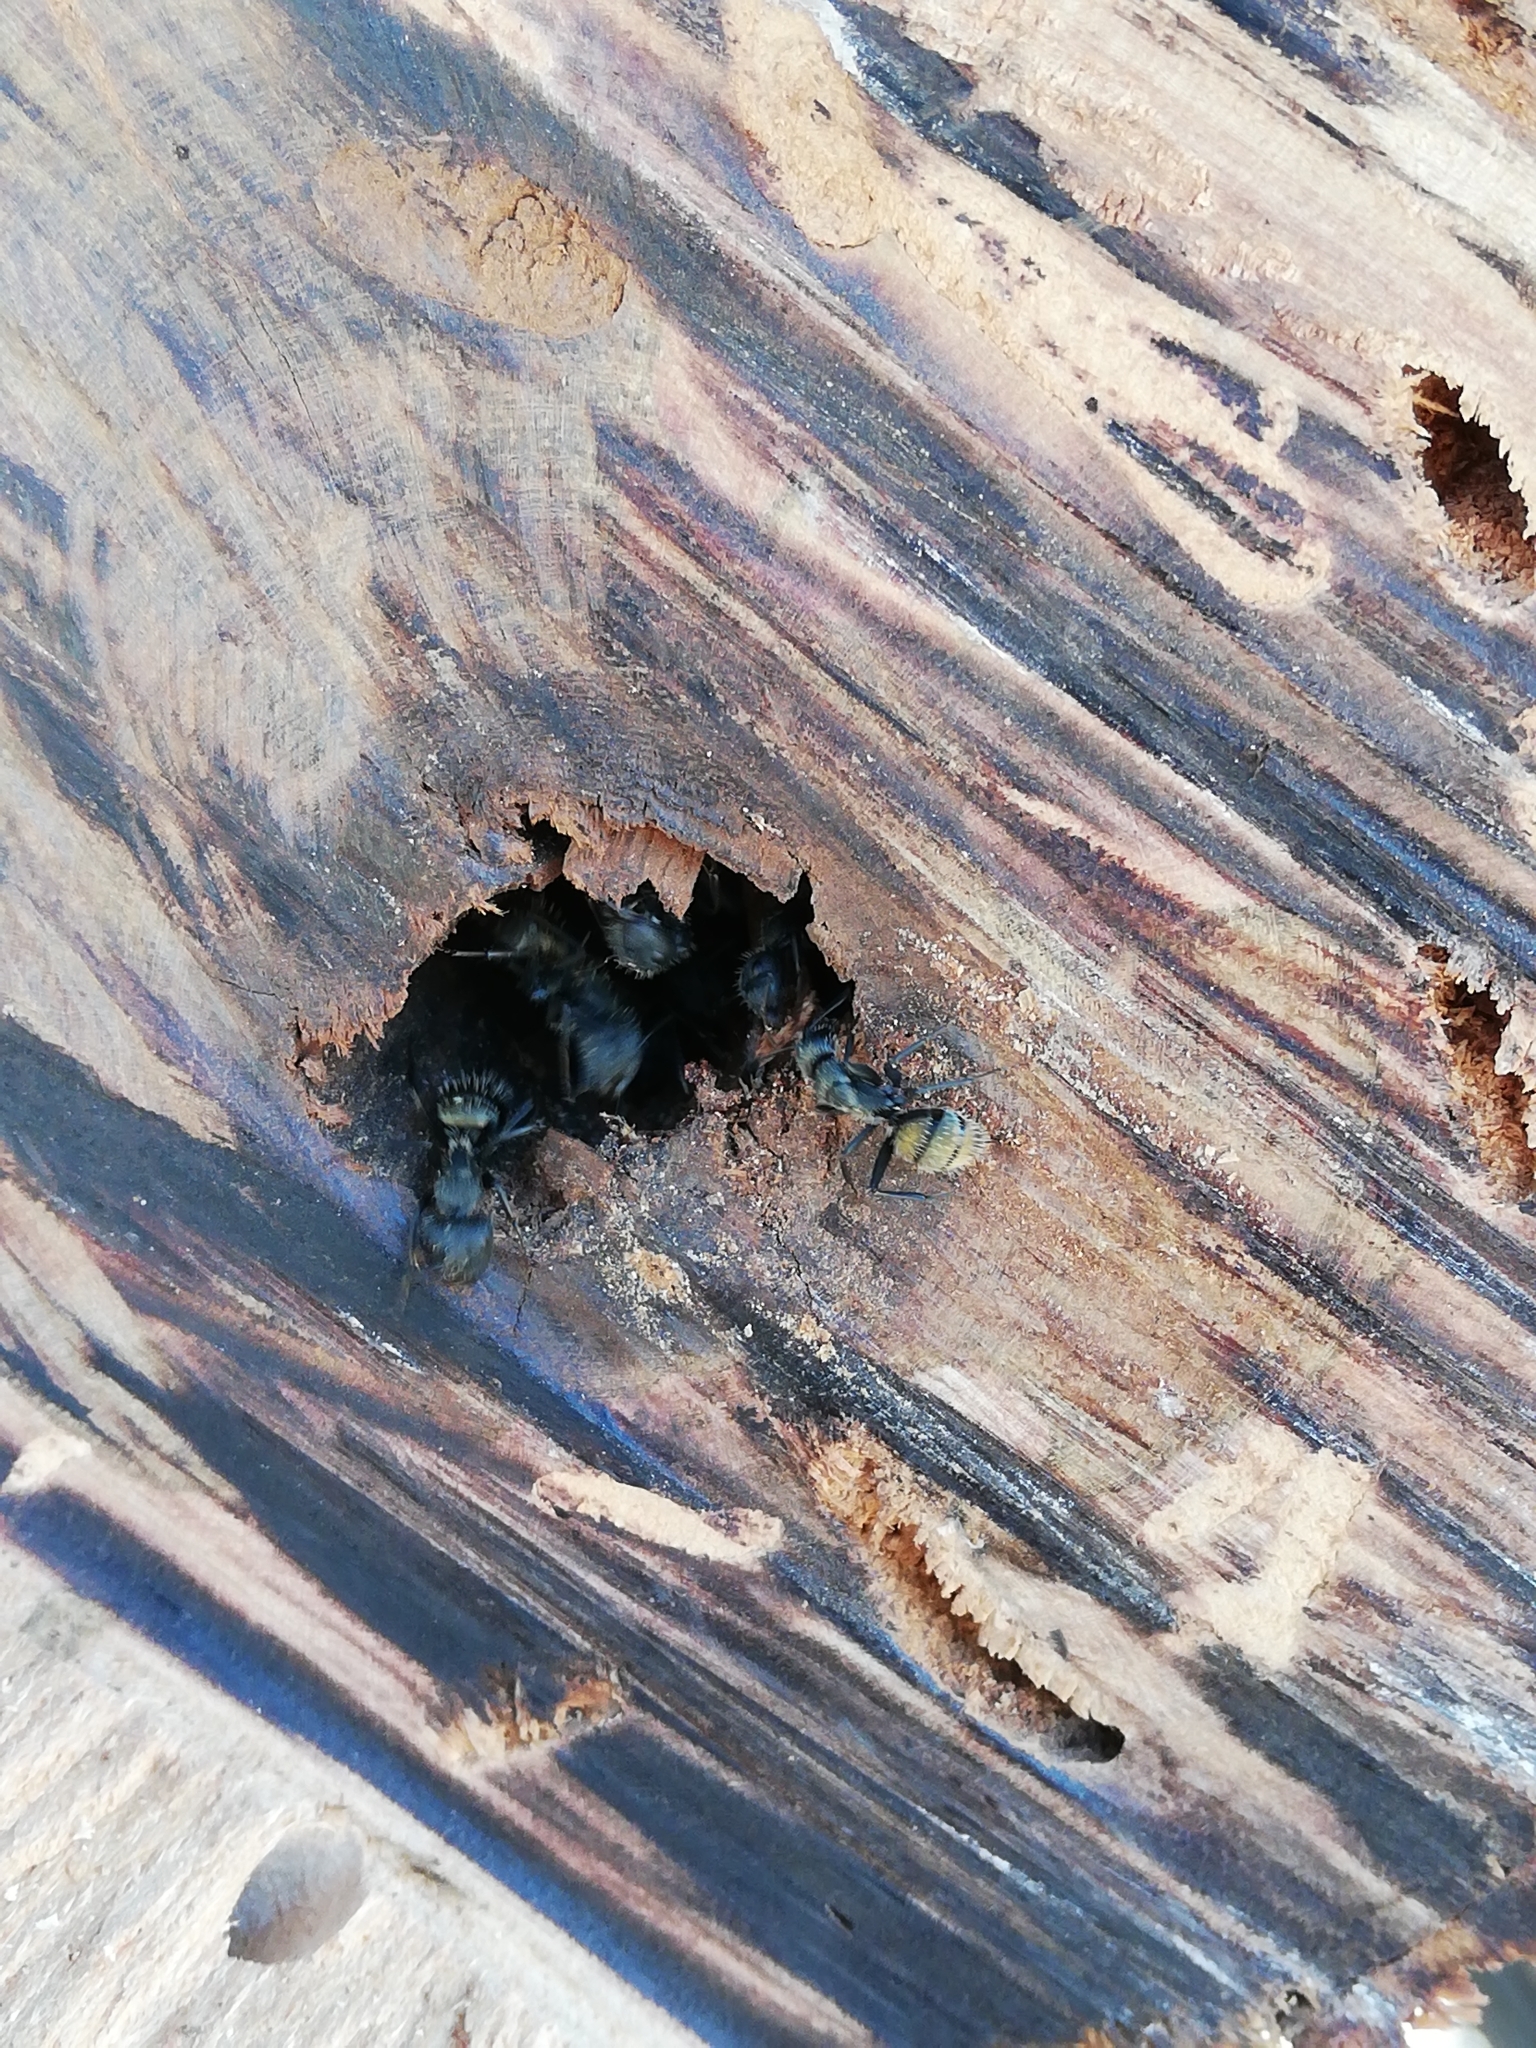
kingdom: Animalia
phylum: Arthropoda
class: Insecta
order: Hymenoptera
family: Formicidae
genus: Camponotus
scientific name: Camponotus auropubens
